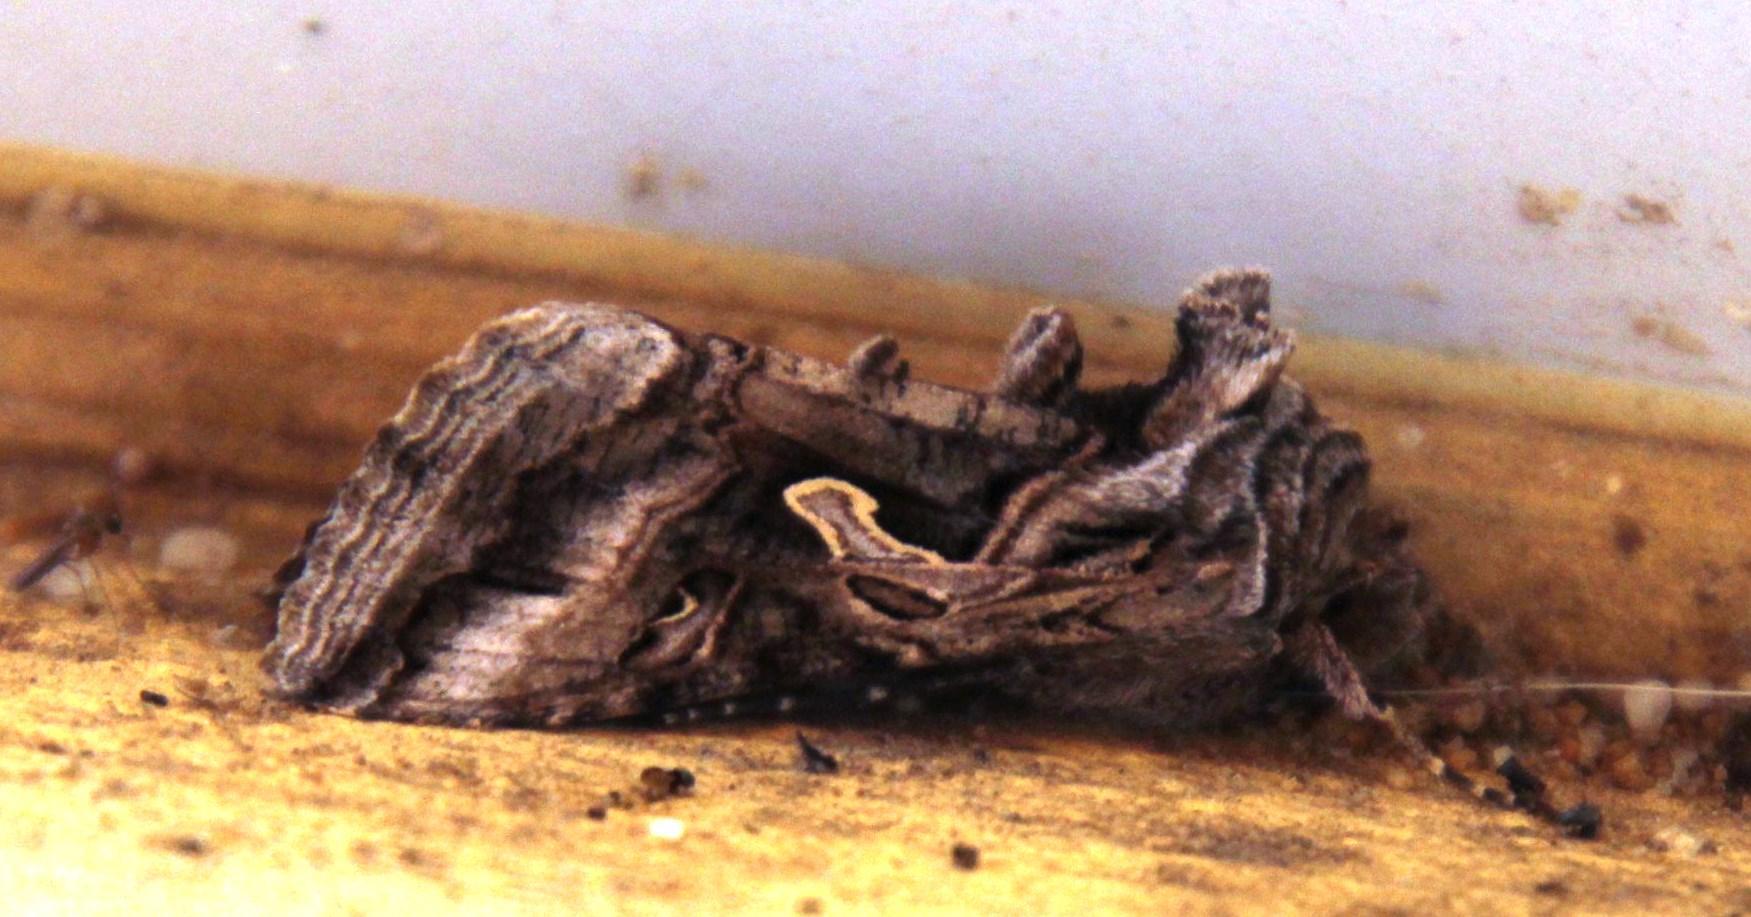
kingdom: Animalia
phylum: Arthropoda
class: Insecta
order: Lepidoptera
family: Noctuidae
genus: Cornutiplusia
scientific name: Cornutiplusia circumflexa
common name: Yorkshire y
